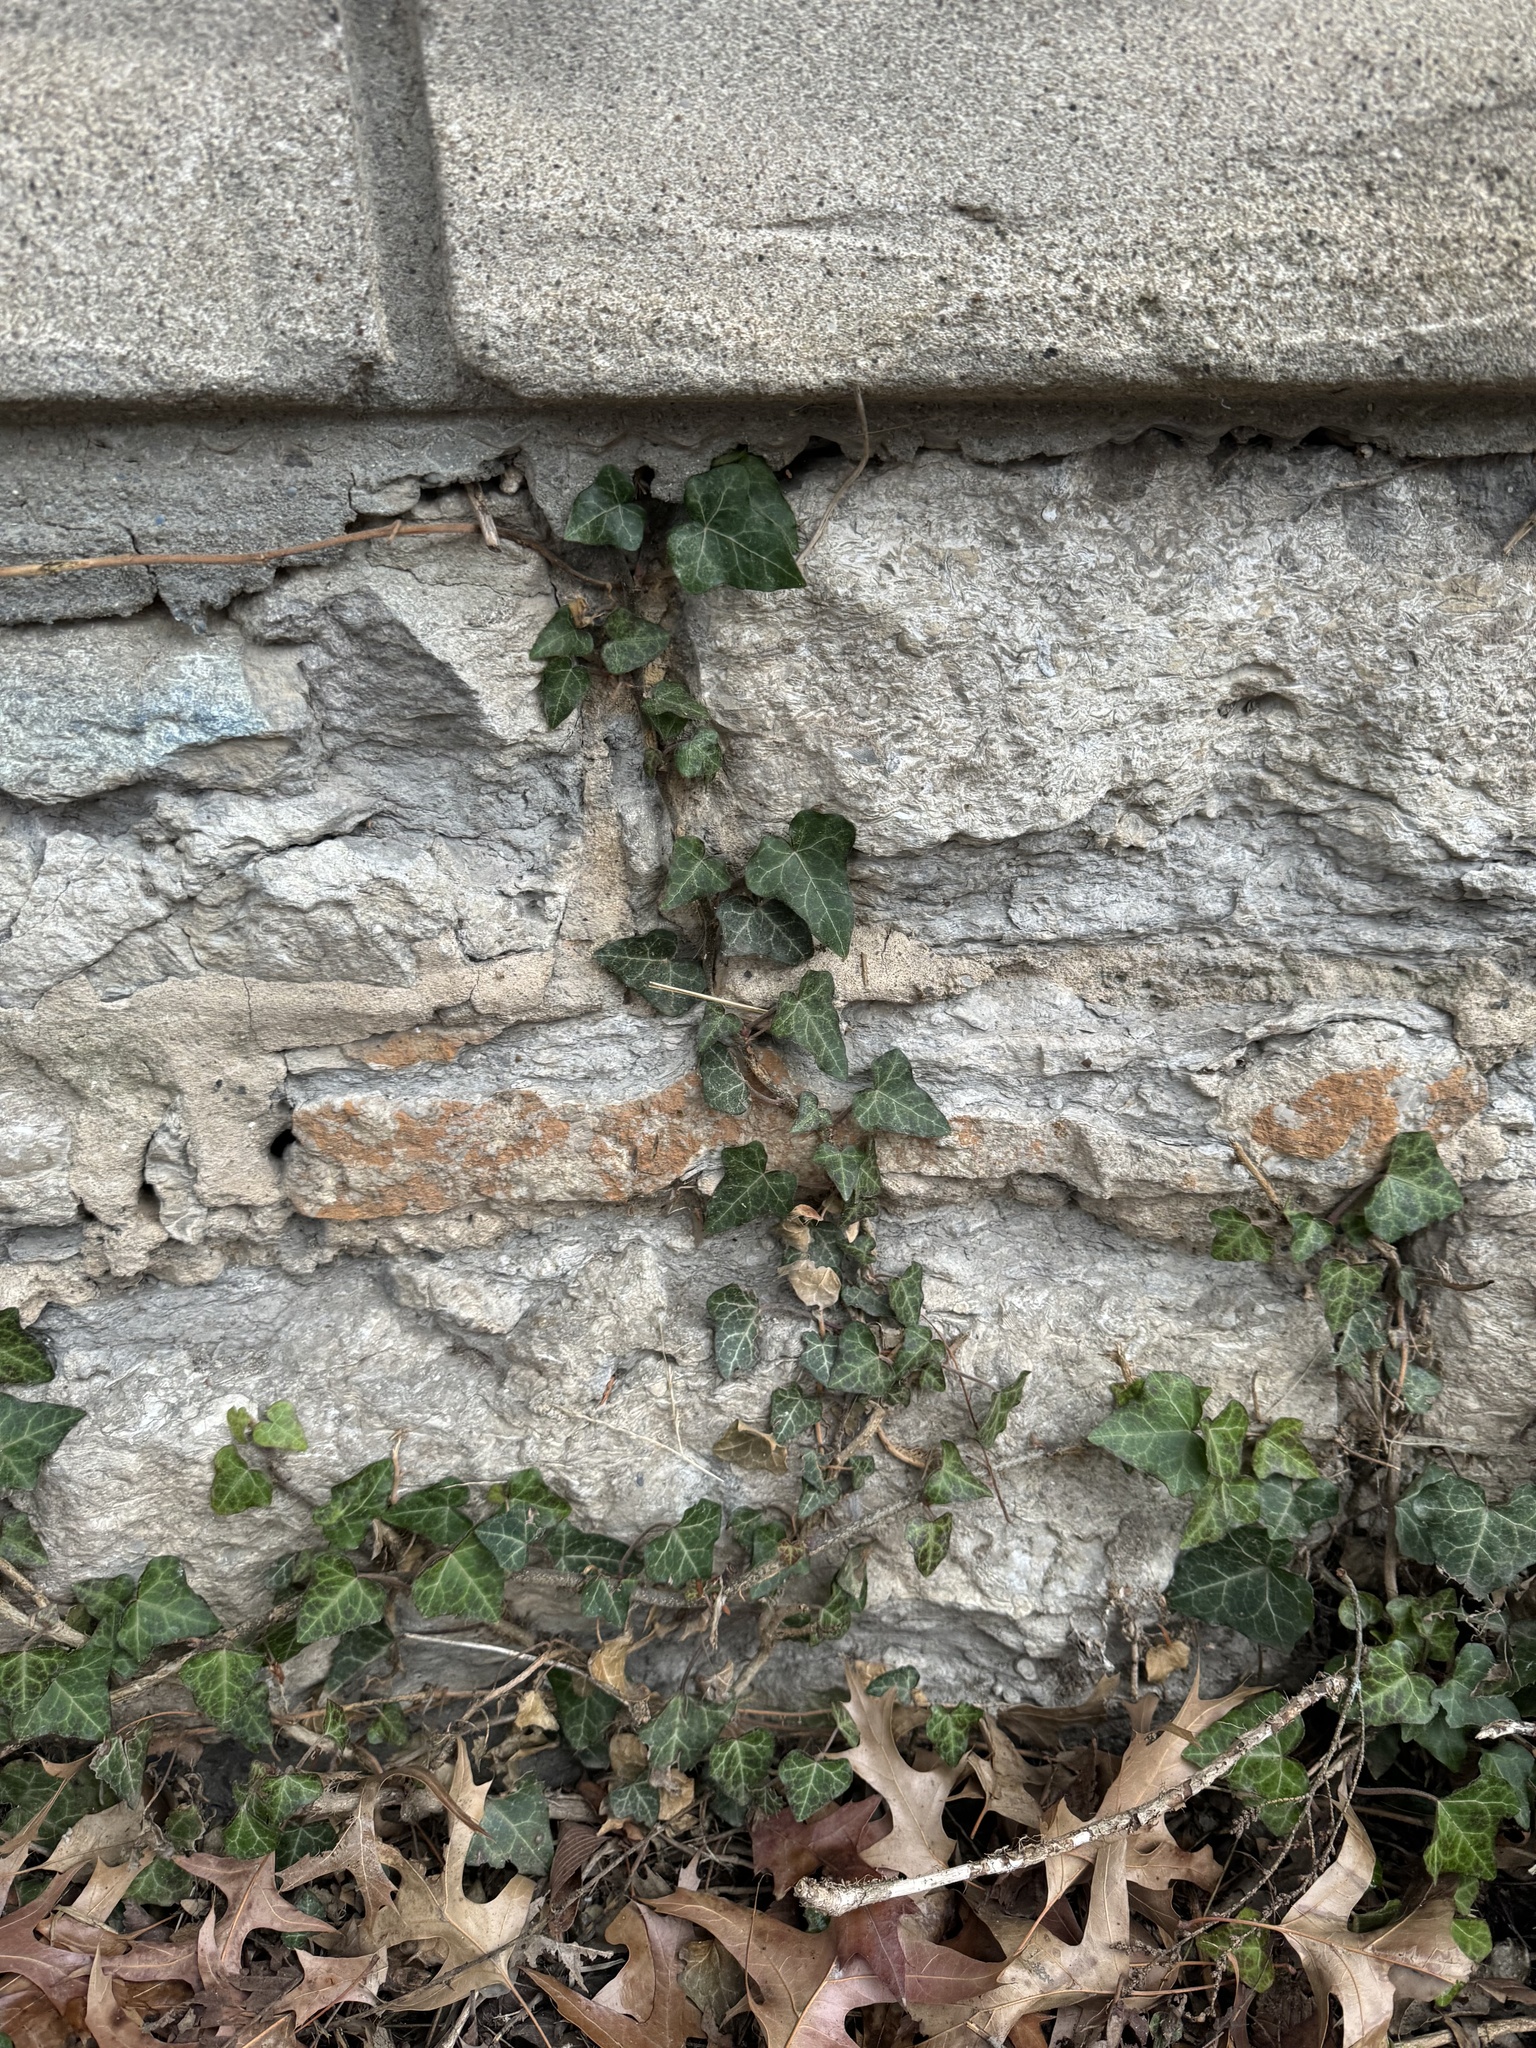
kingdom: Plantae
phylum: Tracheophyta
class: Magnoliopsida
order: Apiales
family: Araliaceae
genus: Hedera
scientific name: Hedera helix
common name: Ivy
